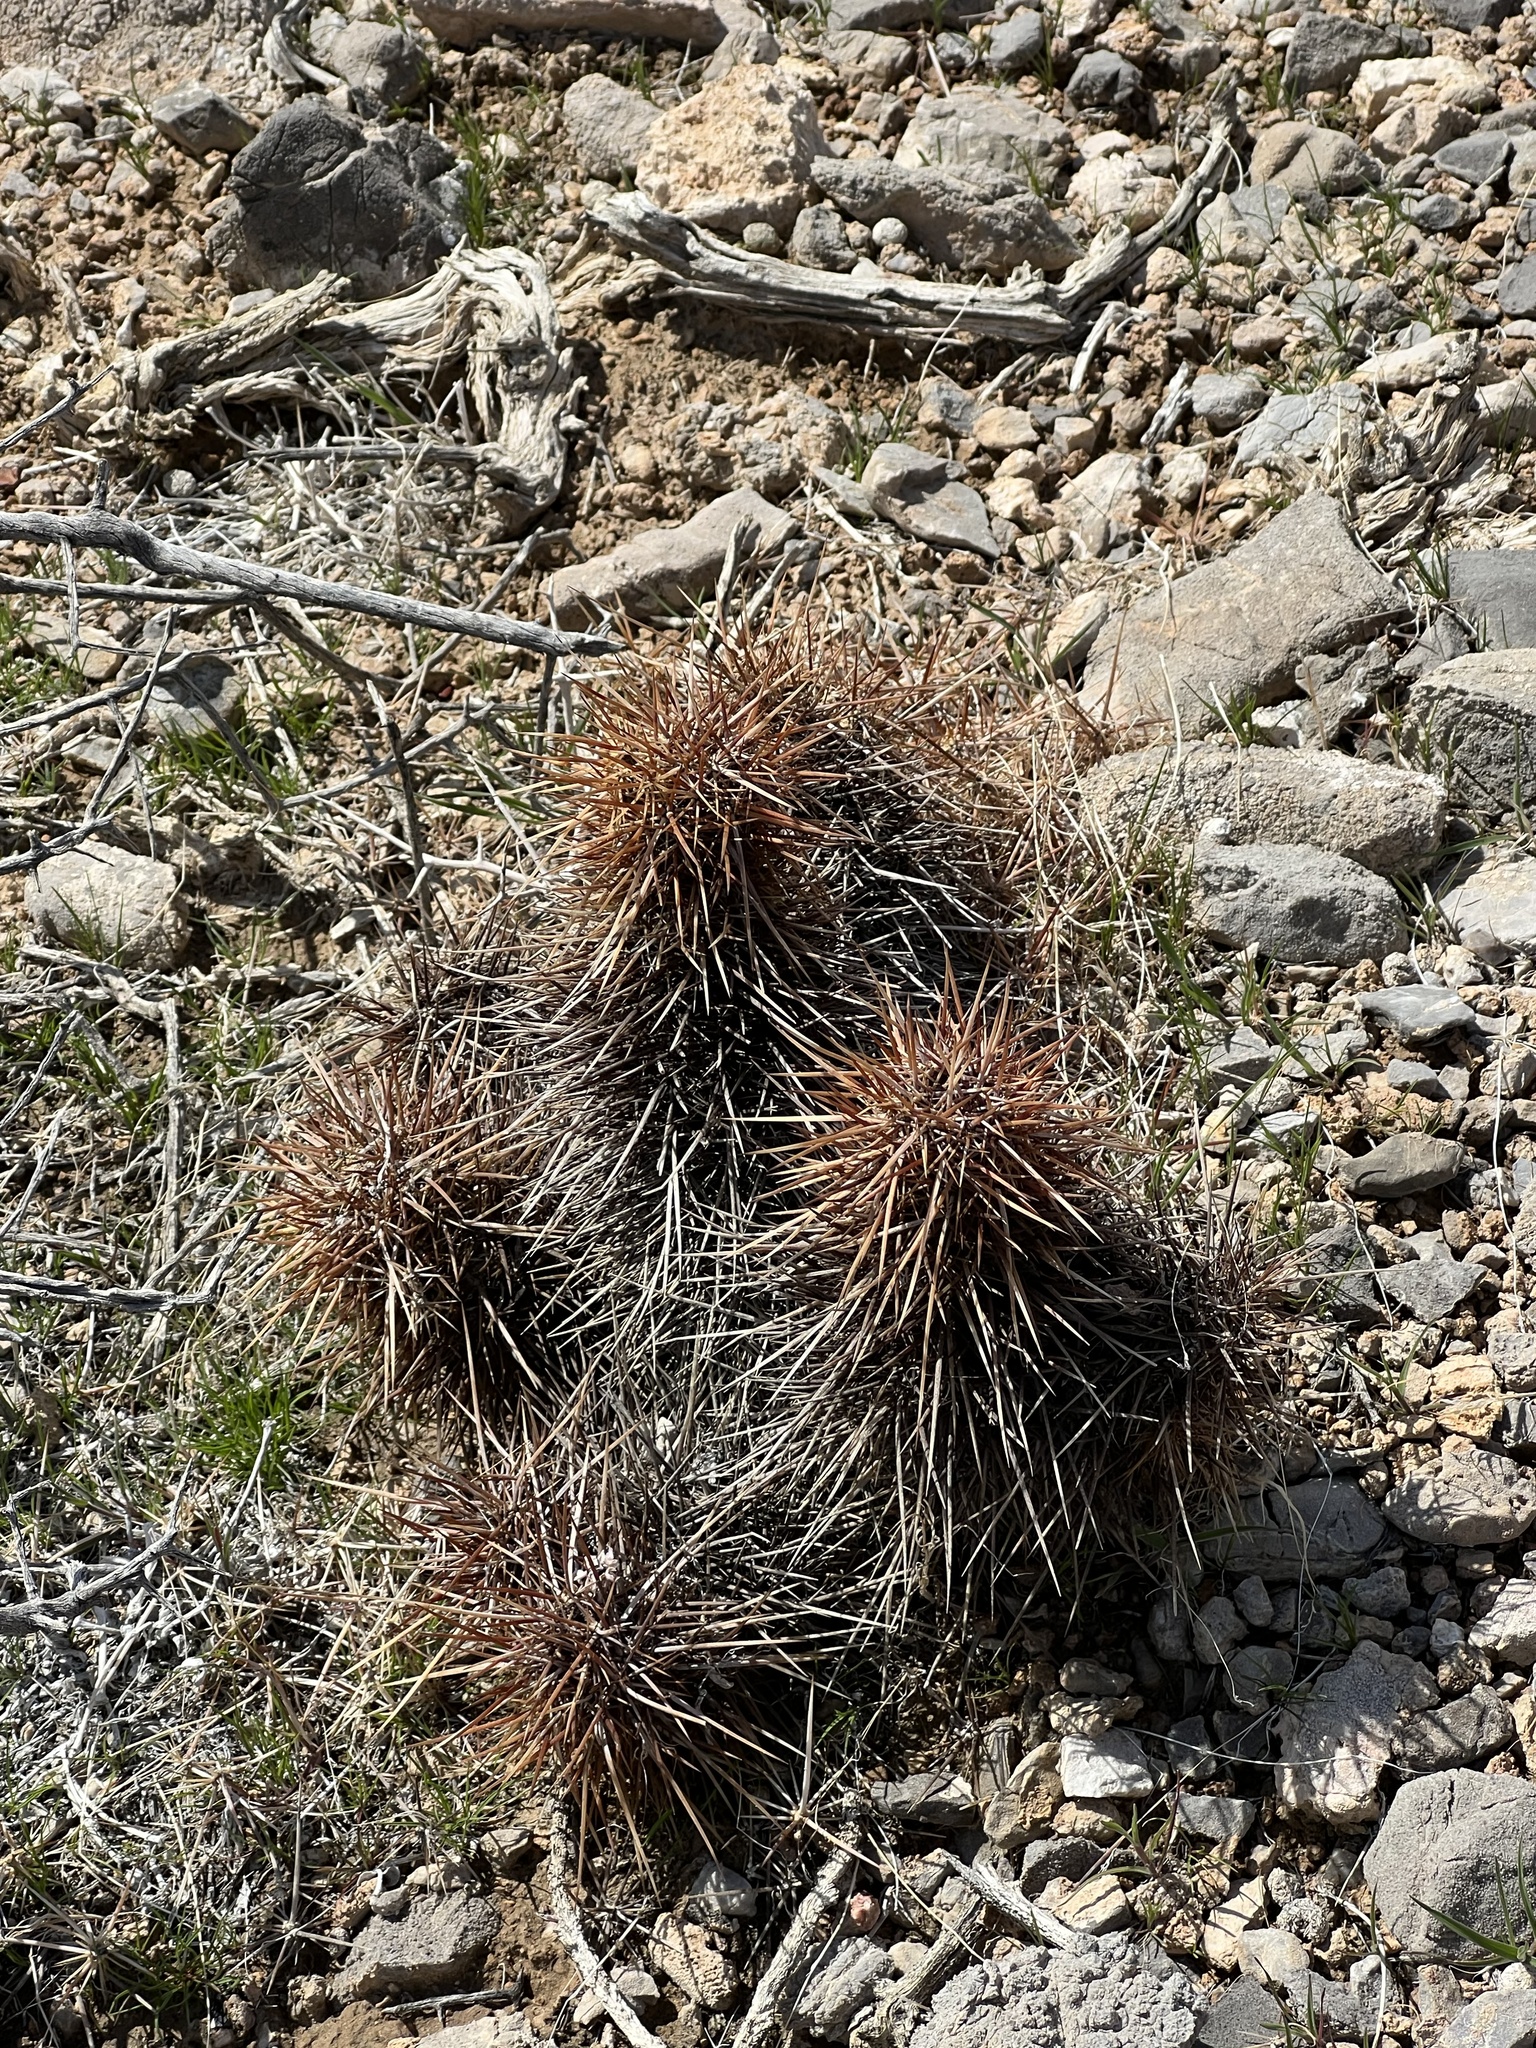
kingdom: Plantae
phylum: Tracheophyta
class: Magnoliopsida
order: Caryophyllales
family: Cactaceae
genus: Echinocereus
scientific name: Echinocereus engelmannii
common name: Engelmann's hedgehog cactus
